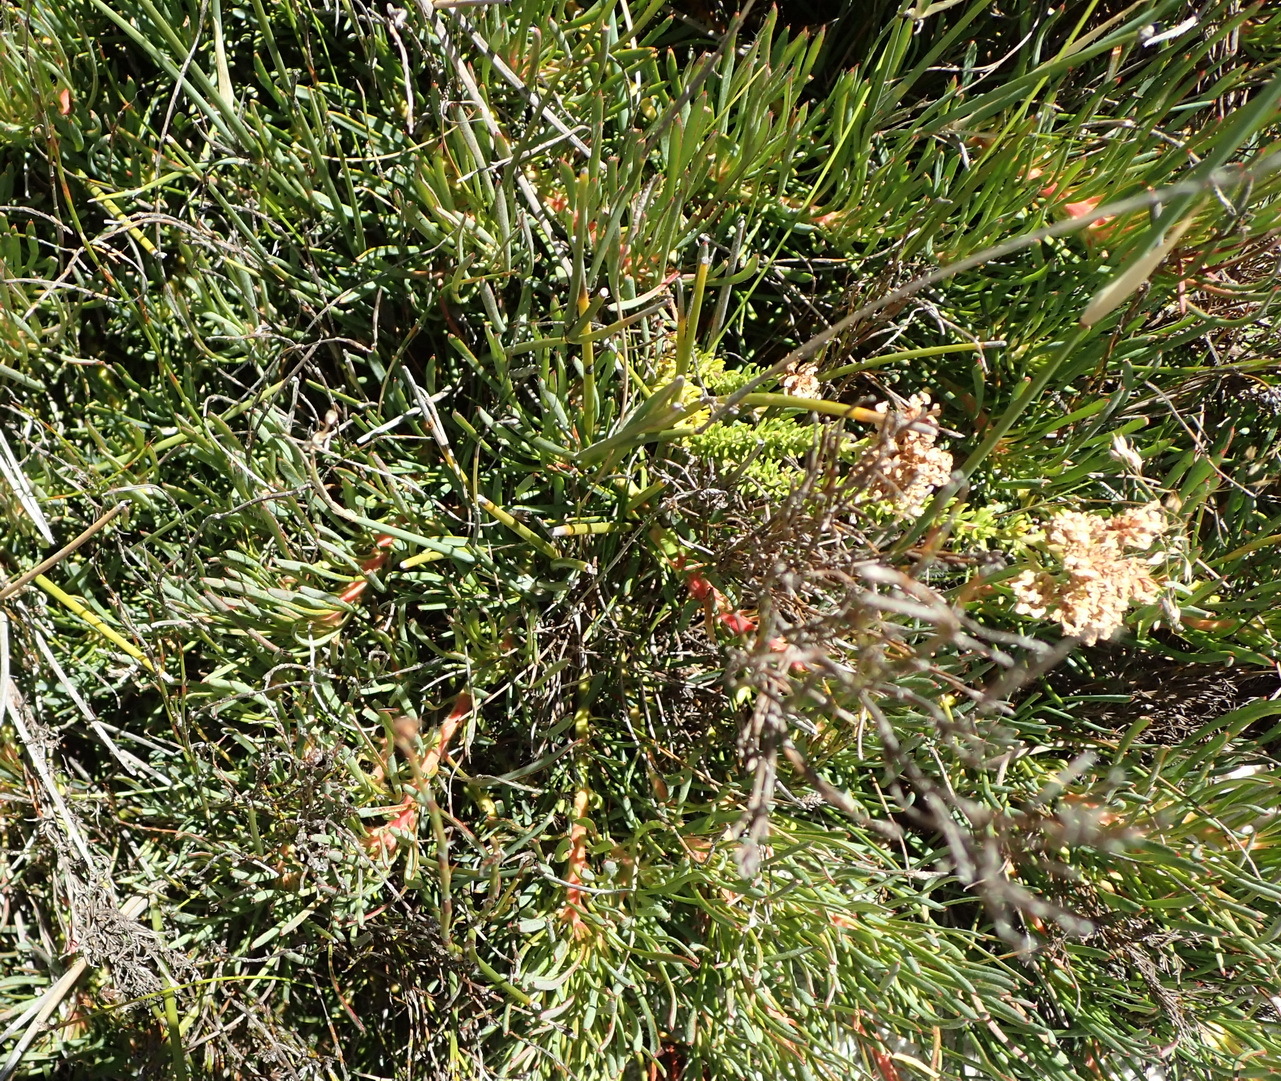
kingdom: Plantae
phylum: Tracheophyta
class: Magnoliopsida
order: Proteales
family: Proteaceae
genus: Protea
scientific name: Protea montana
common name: Swartberg sugarbush
